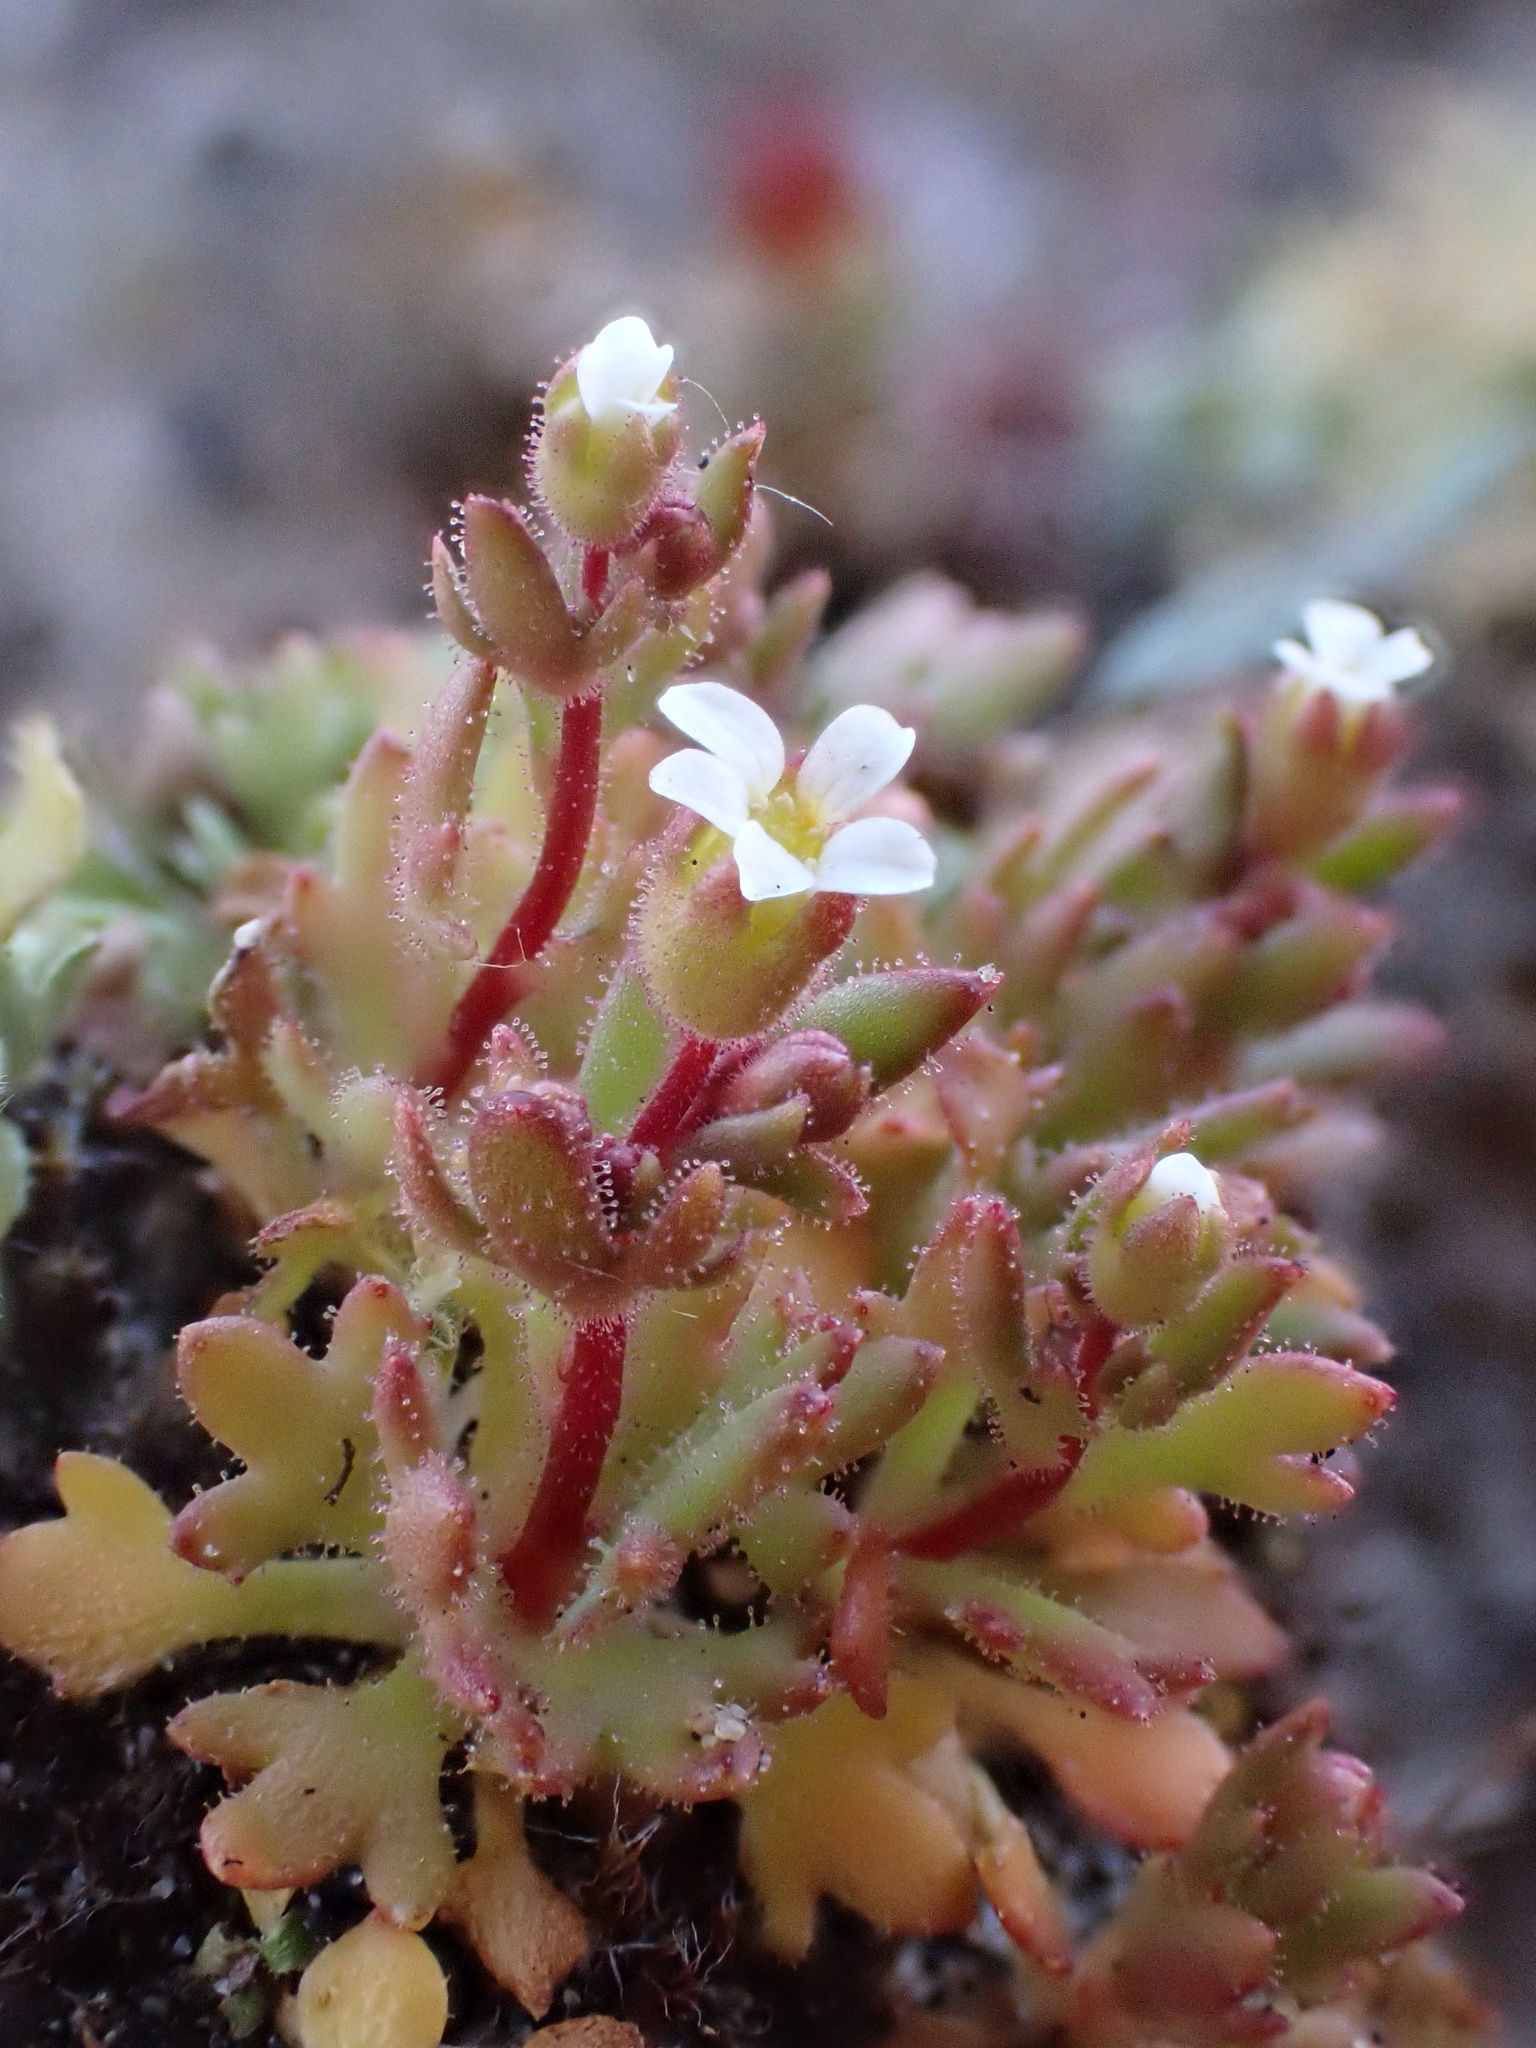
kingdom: Plantae
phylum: Tracheophyta
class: Magnoliopsida
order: Saxifragales
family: Saxifragaceae
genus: Saxifraga
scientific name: Saxifraga tridactylites
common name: Rue-leaved saxifrage
